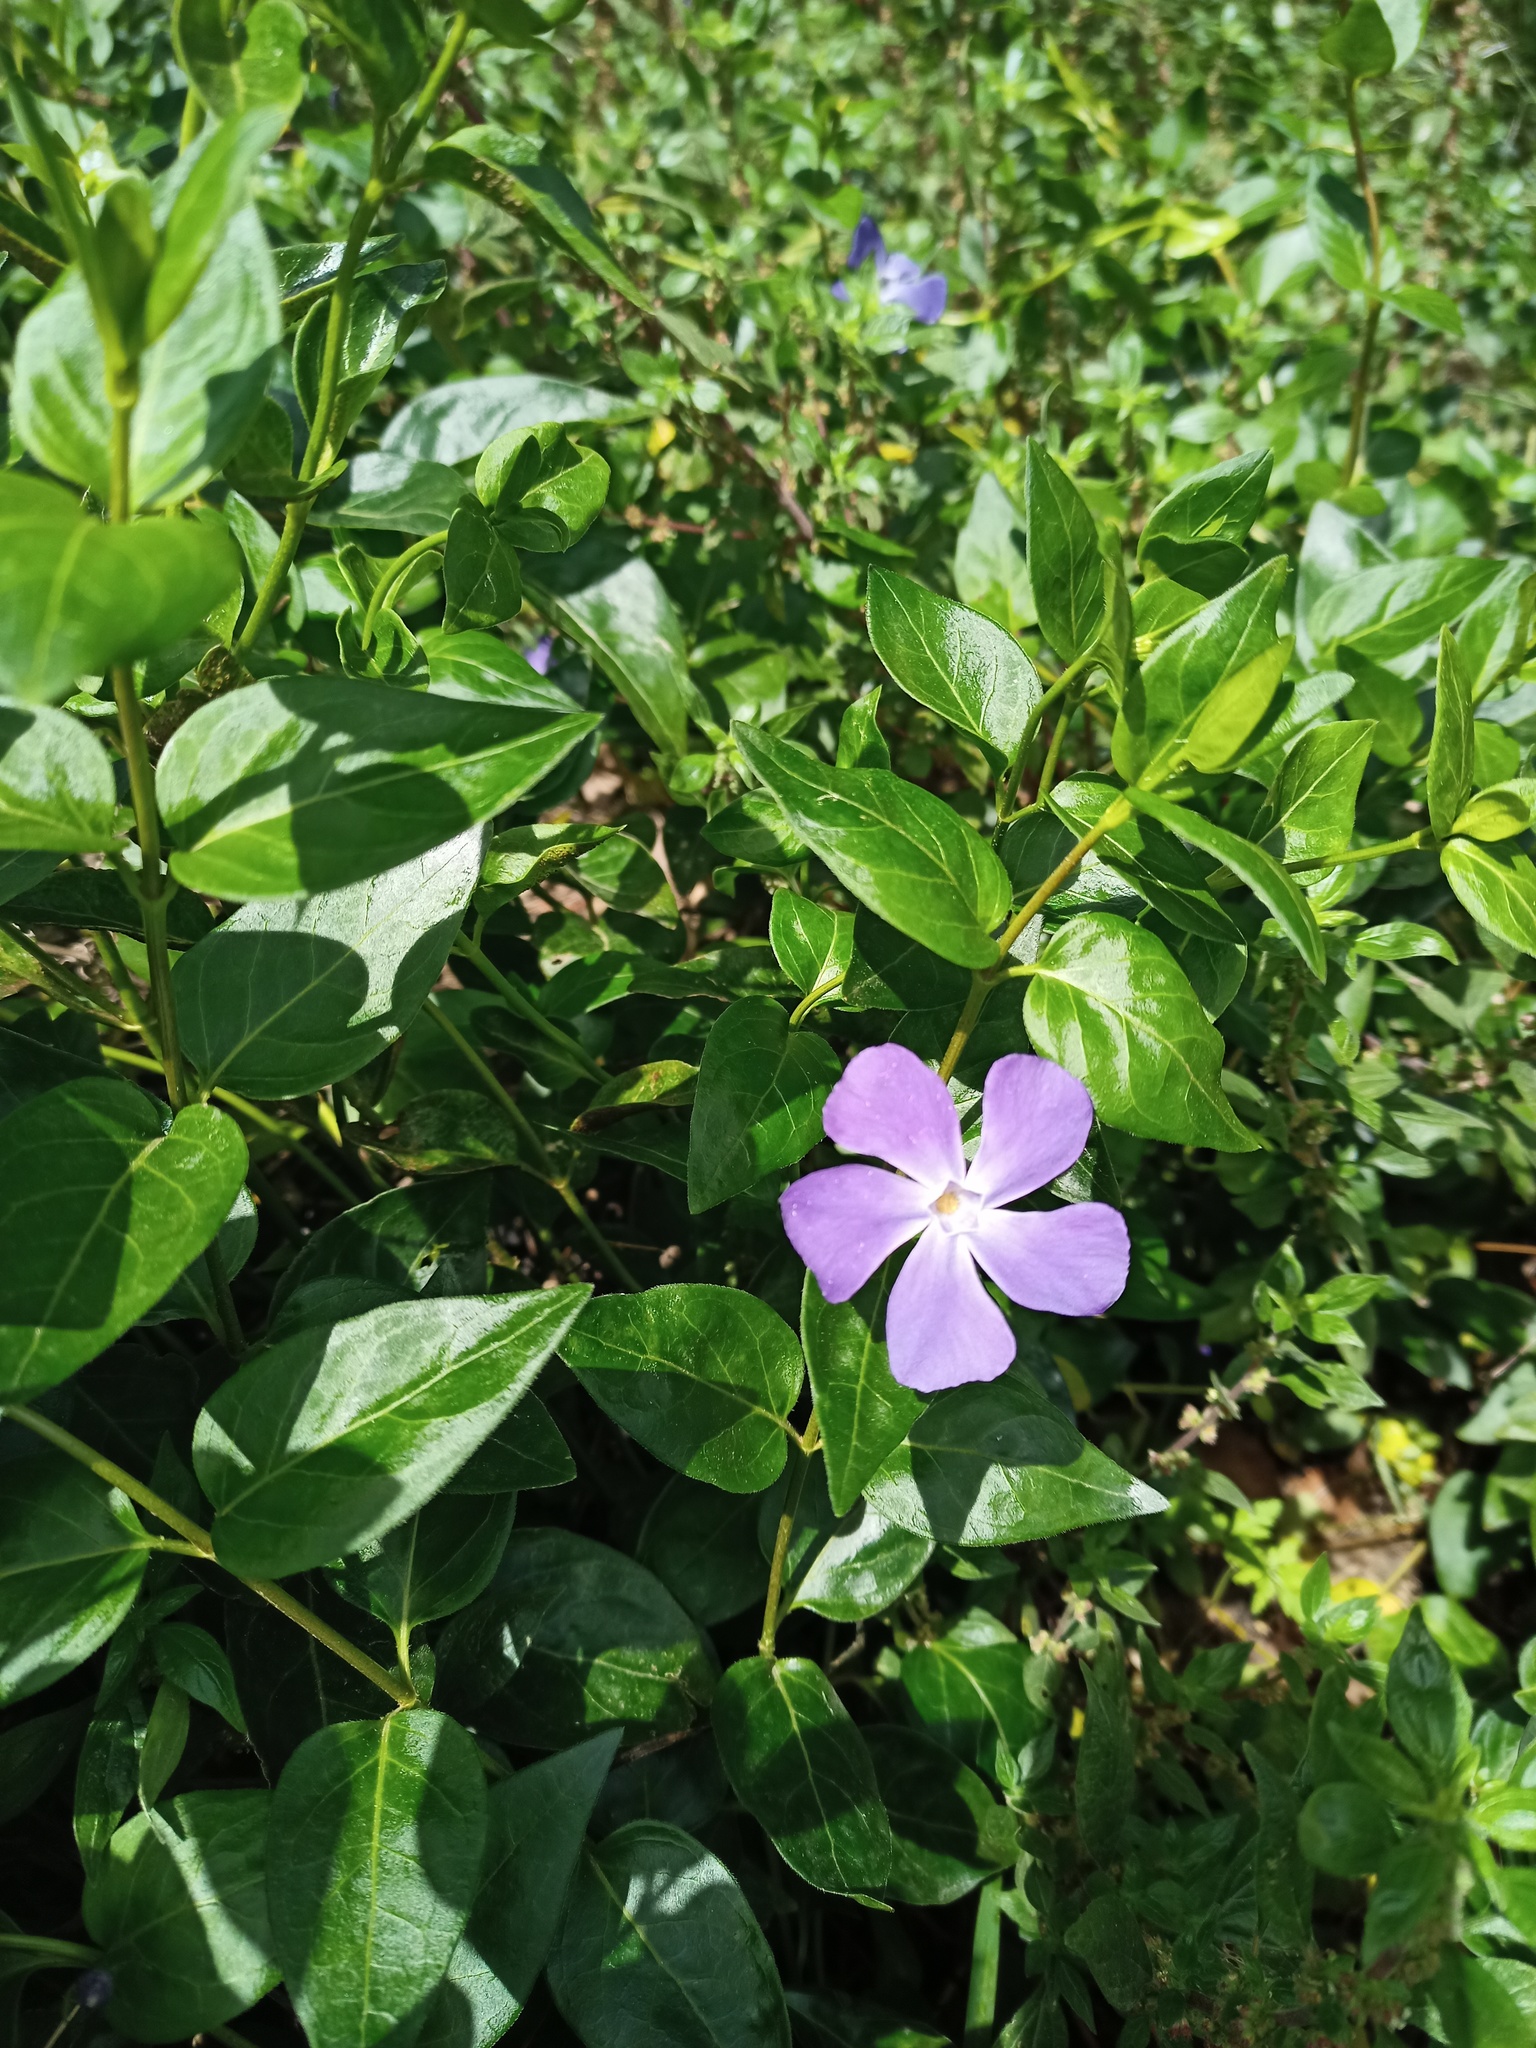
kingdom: Plantae
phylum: Tracheophyta
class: Magnoliopsida
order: Gentianales
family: Apocynaceae
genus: Vinca
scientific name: Vinca major
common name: Greater periwinkle
